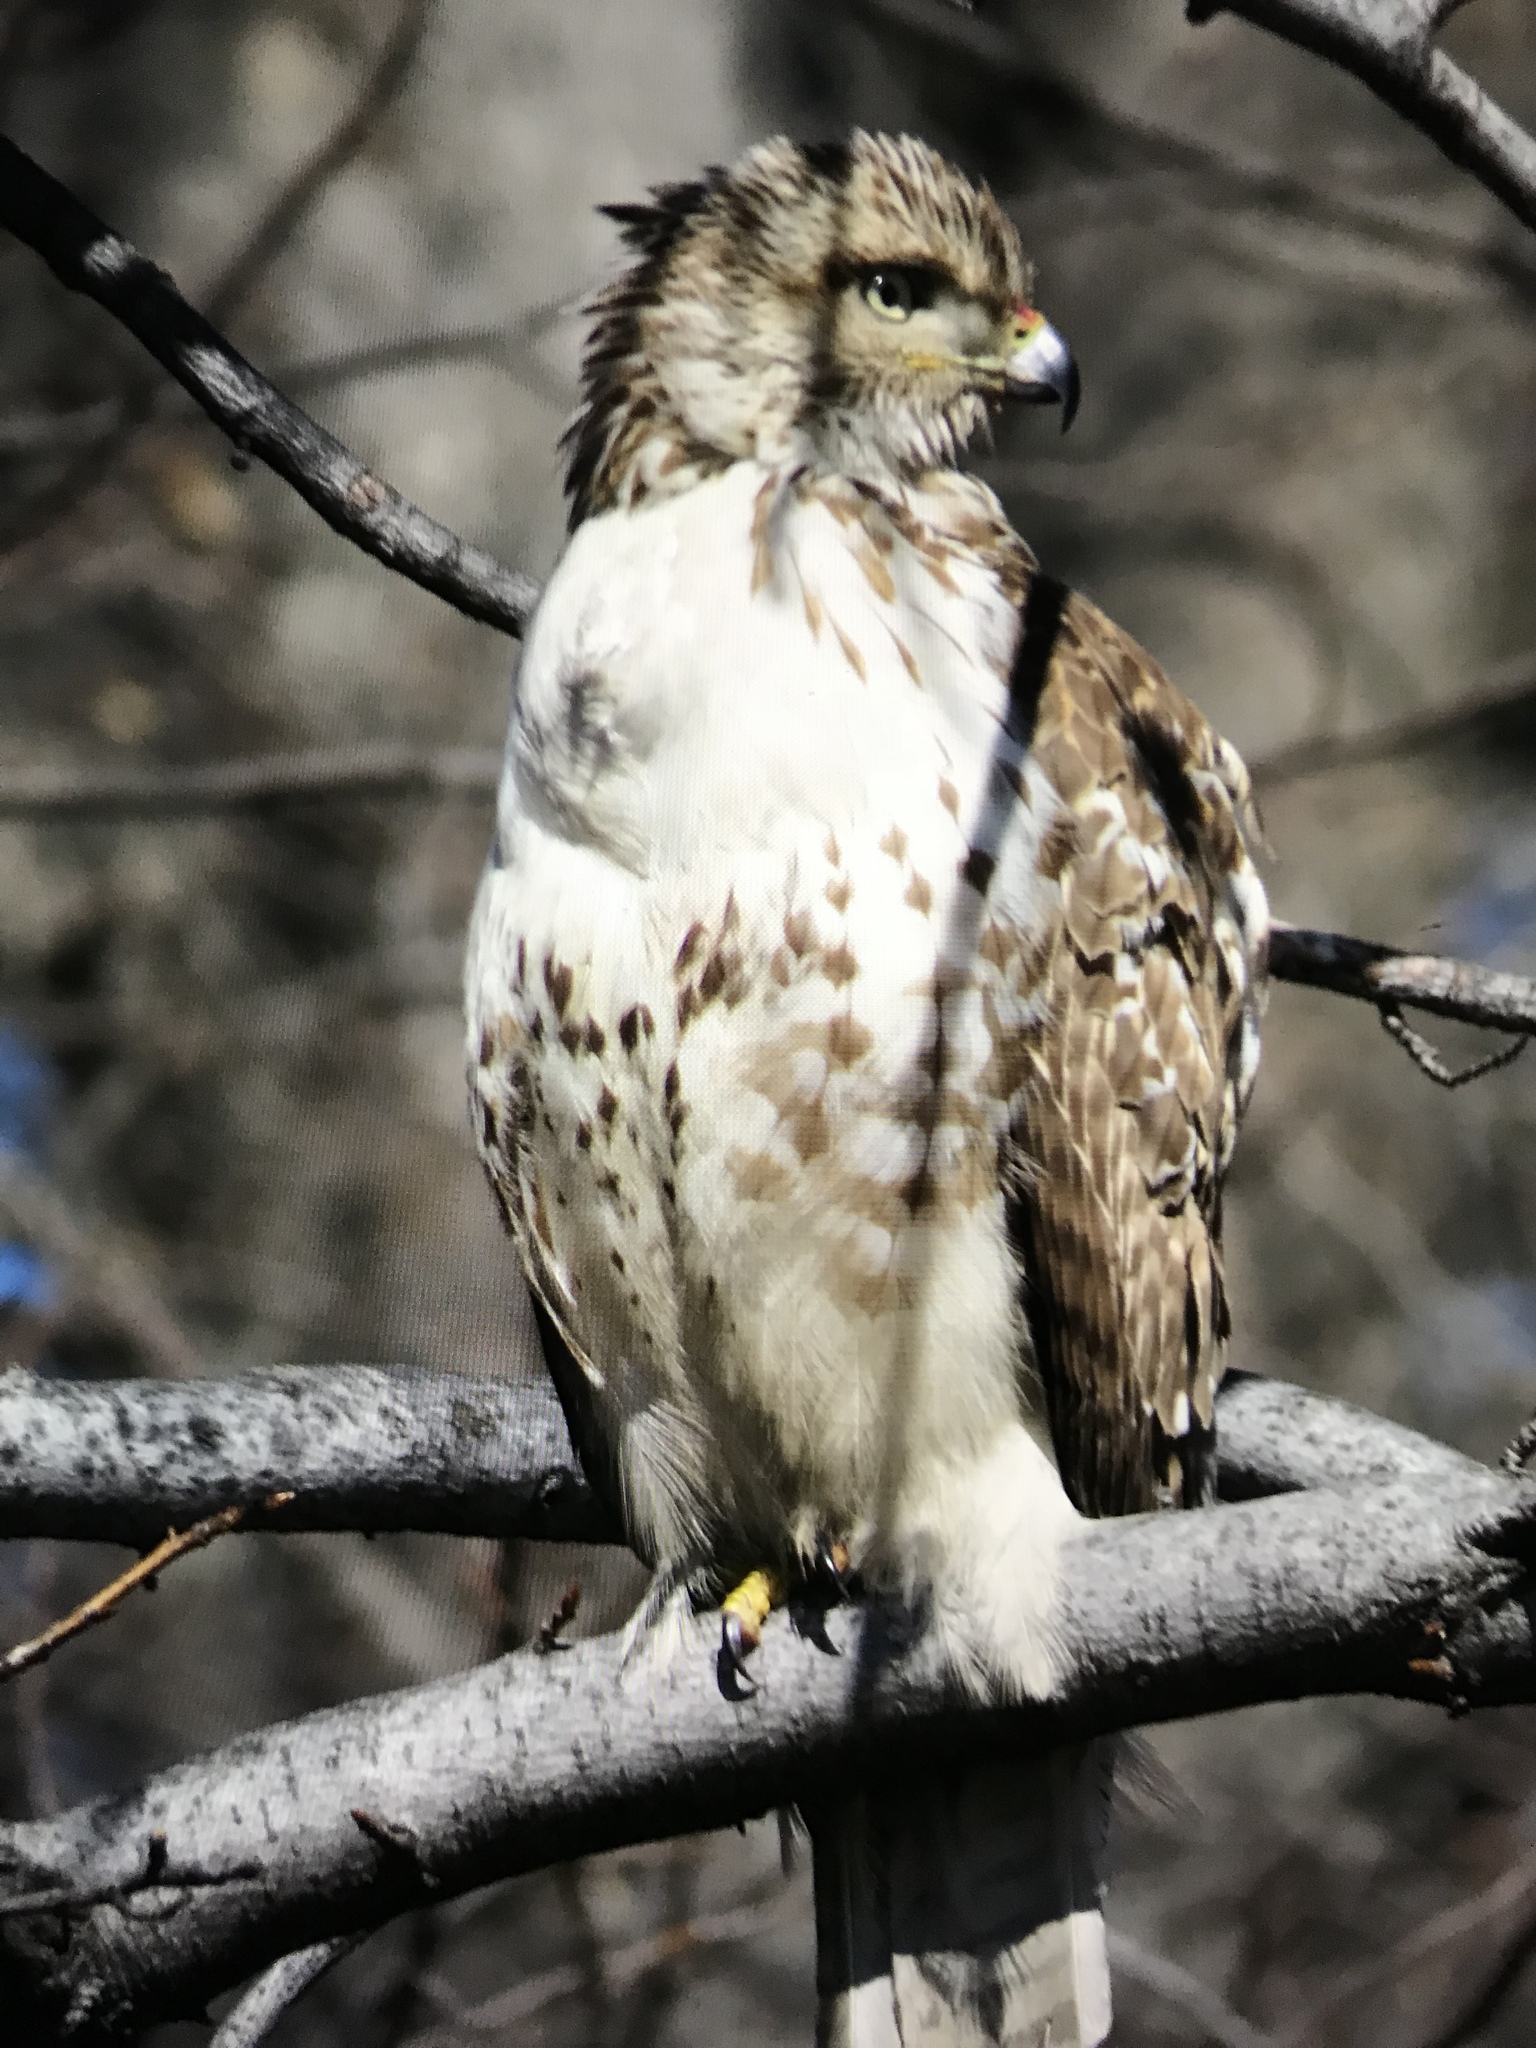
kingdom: Animalia
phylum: Chordata
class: Aves
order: Accipitriformes
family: Accipitridae
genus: Buteo
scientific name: Buteo jamaicensis
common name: Red-tailed hawk
